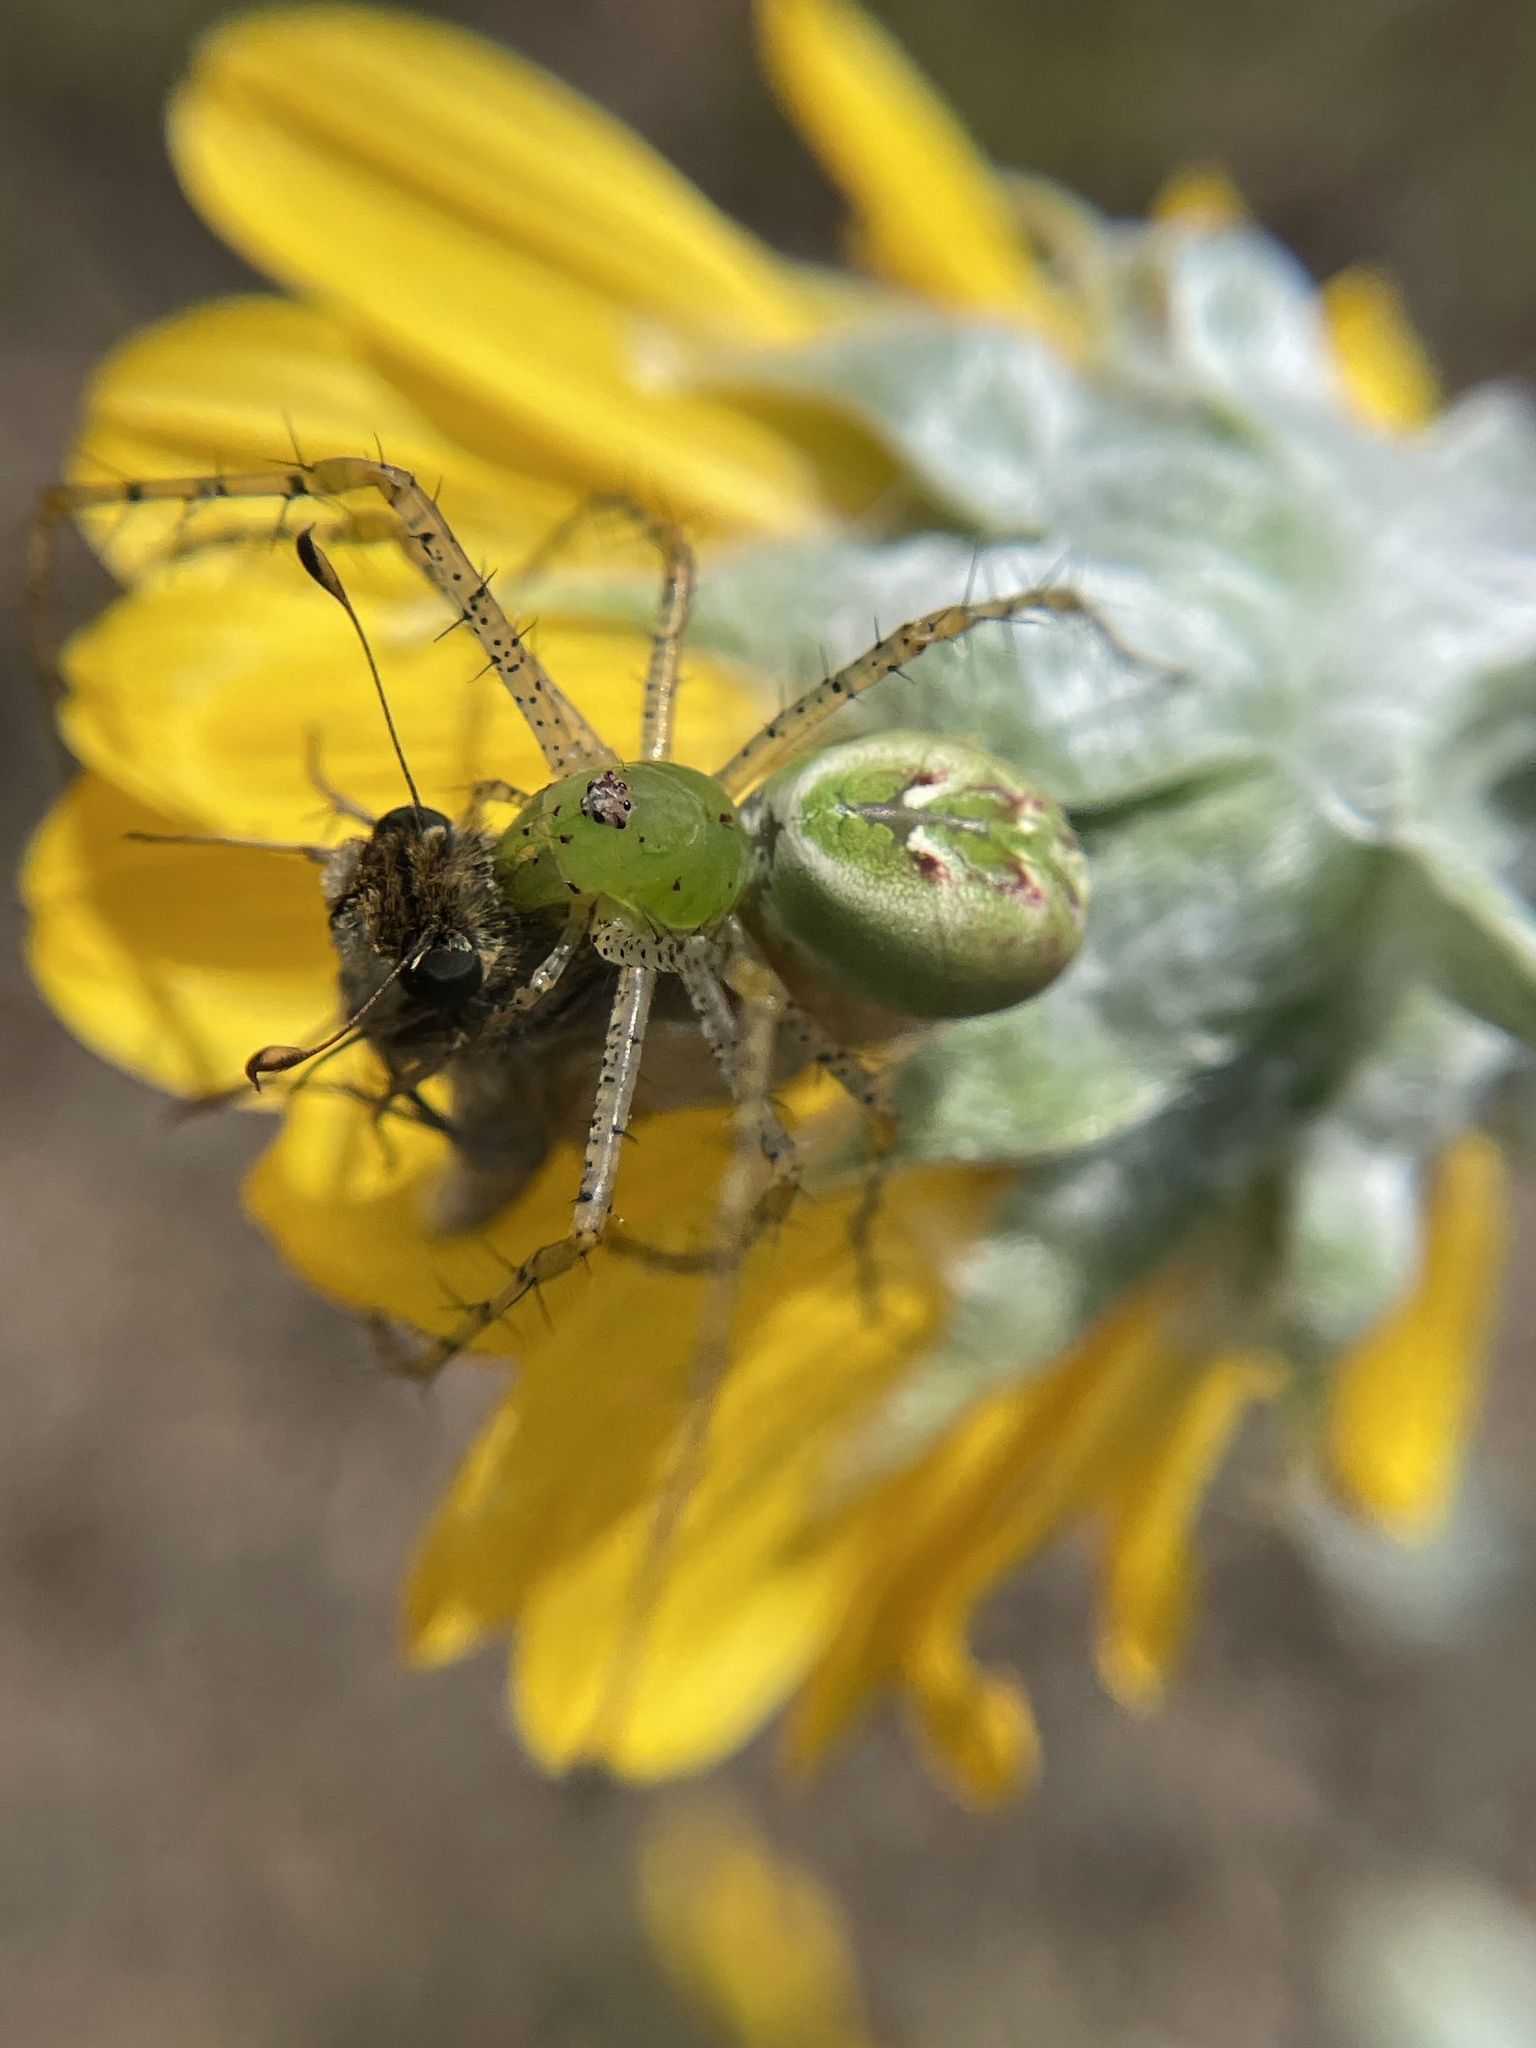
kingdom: Animalia
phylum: Arthropoda
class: Arachnida
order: Araneae
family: Oxyopidae
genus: Peucetia
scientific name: Peucetia viridans
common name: Lynx spiders
